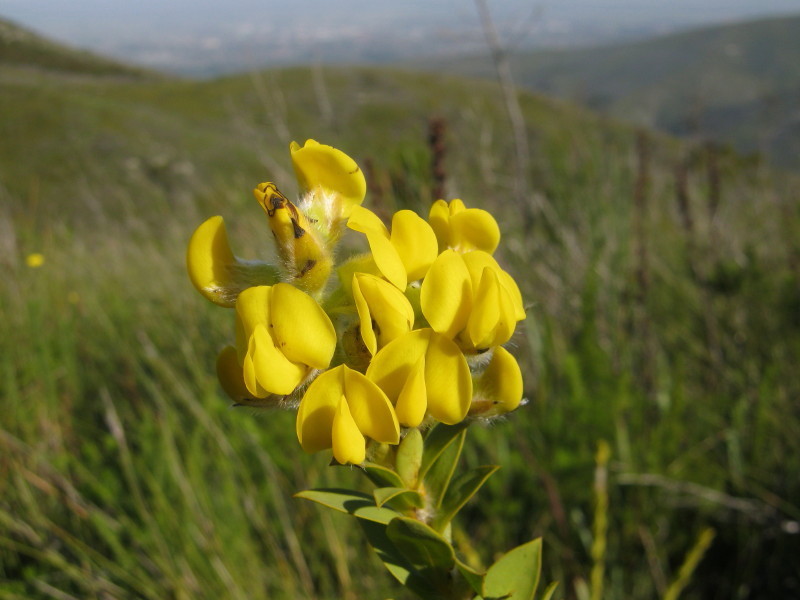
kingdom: Plantae
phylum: Tracheophyta
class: Magnoliopsida
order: Fabales
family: Fabaceae
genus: Liparia
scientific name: Liparia hirsuta
